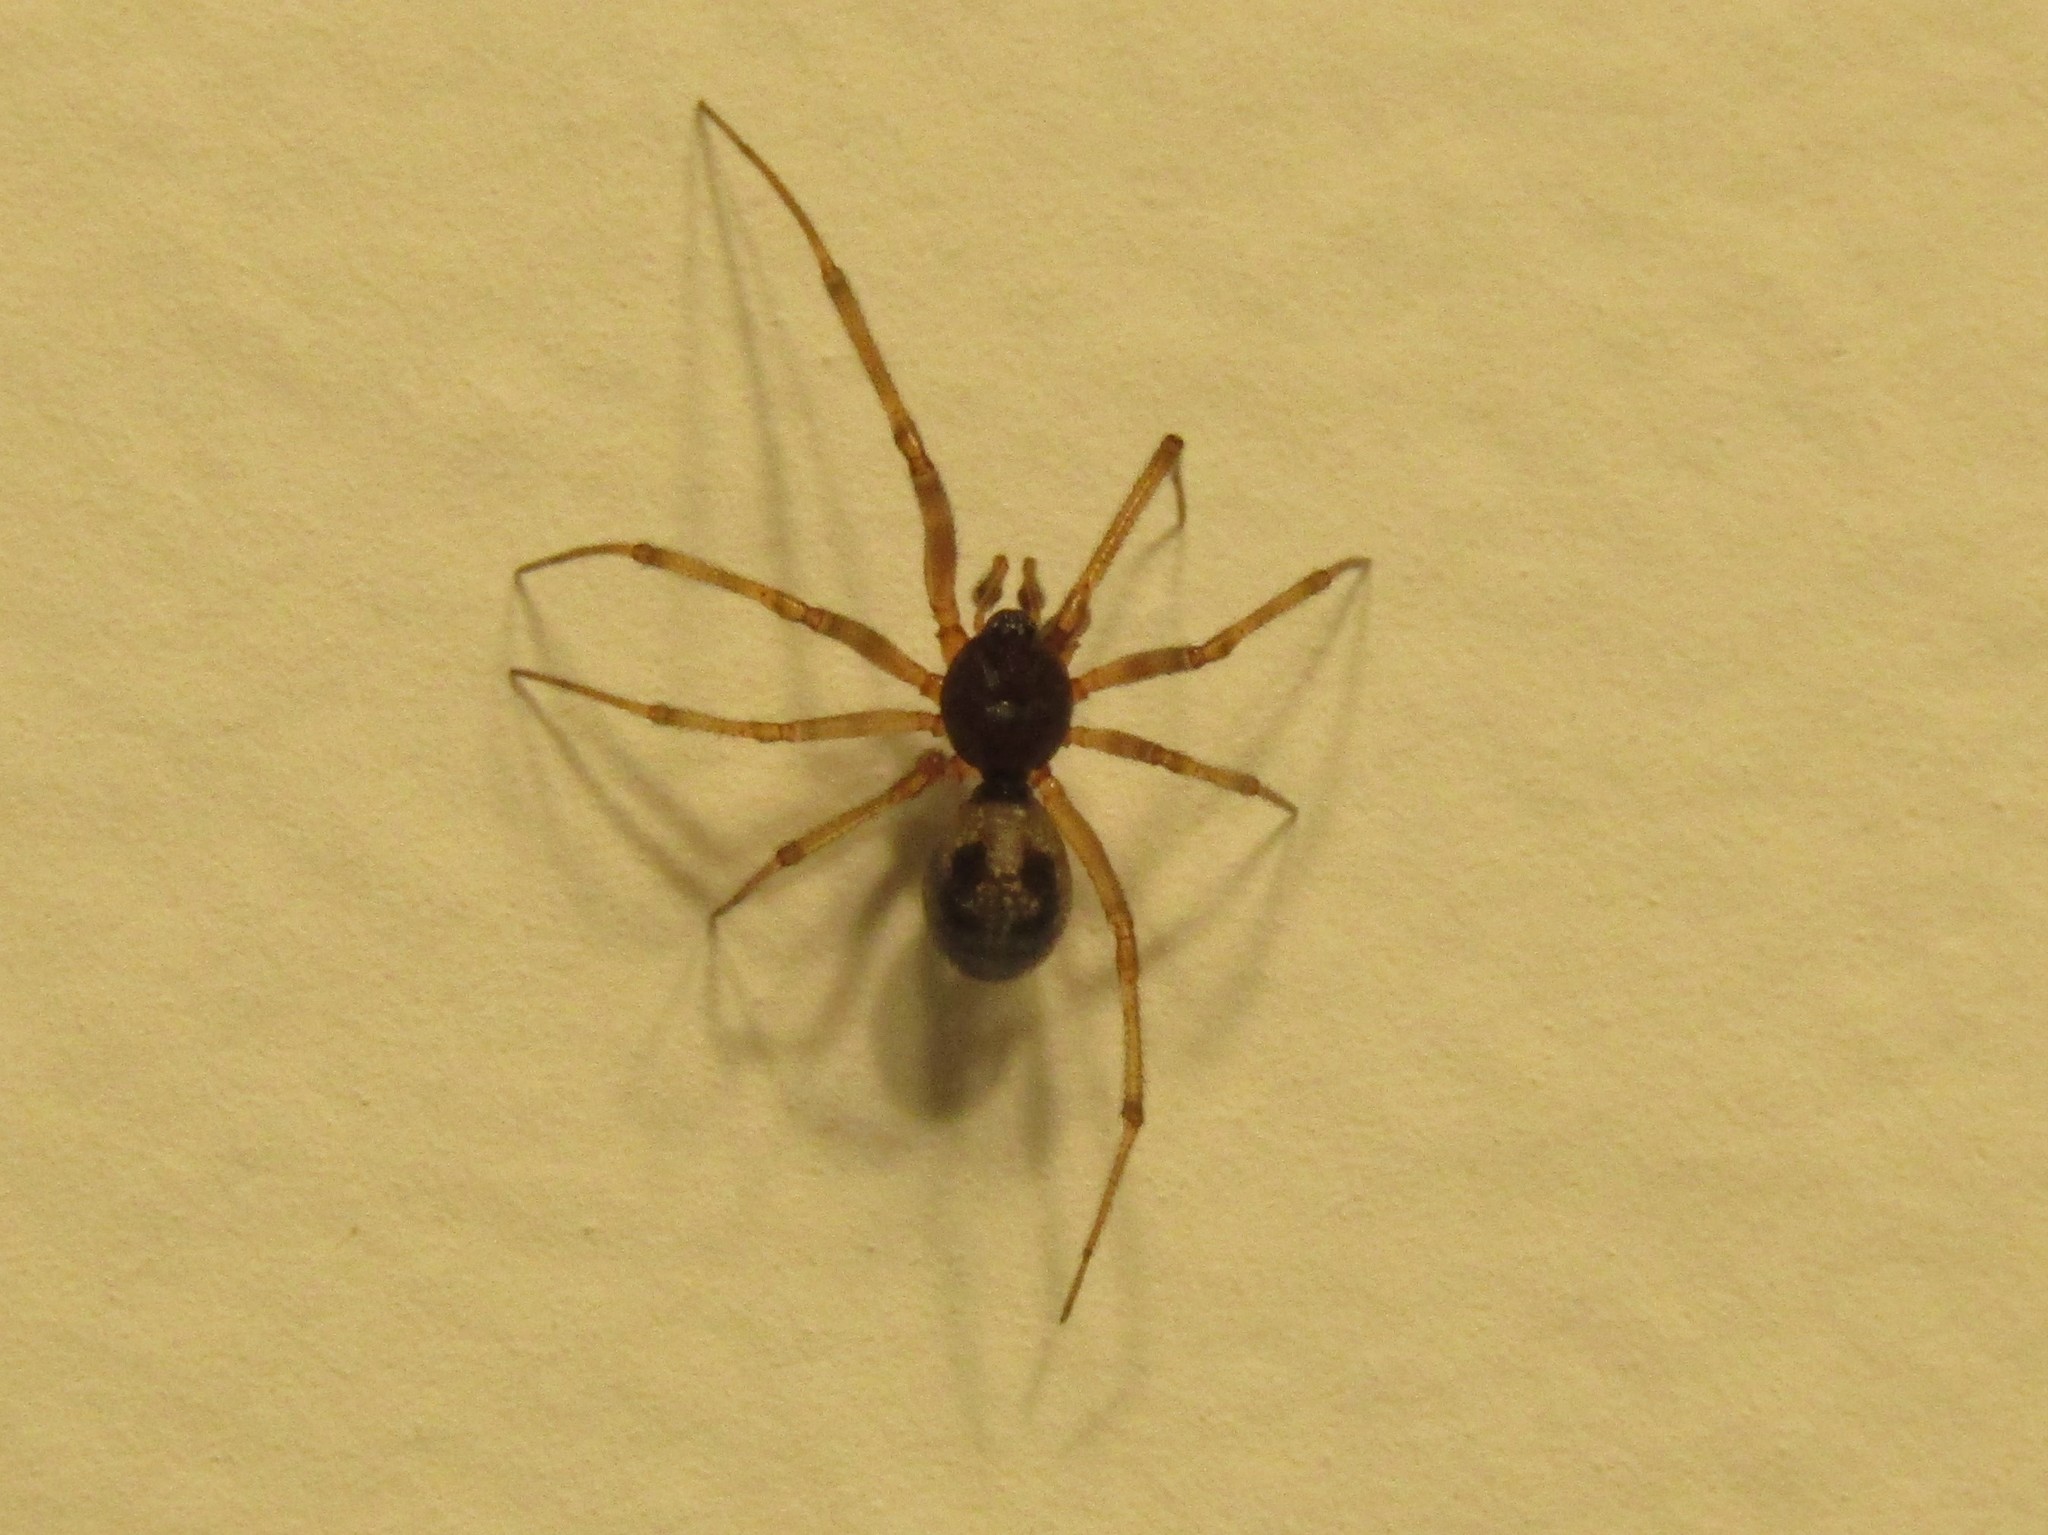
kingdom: Animalia
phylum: Arthropoda
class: Arachnida
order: Araneae
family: Theridiidae
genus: Steatoda
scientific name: Steatoda triangulosa
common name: Triangulate bud spider
